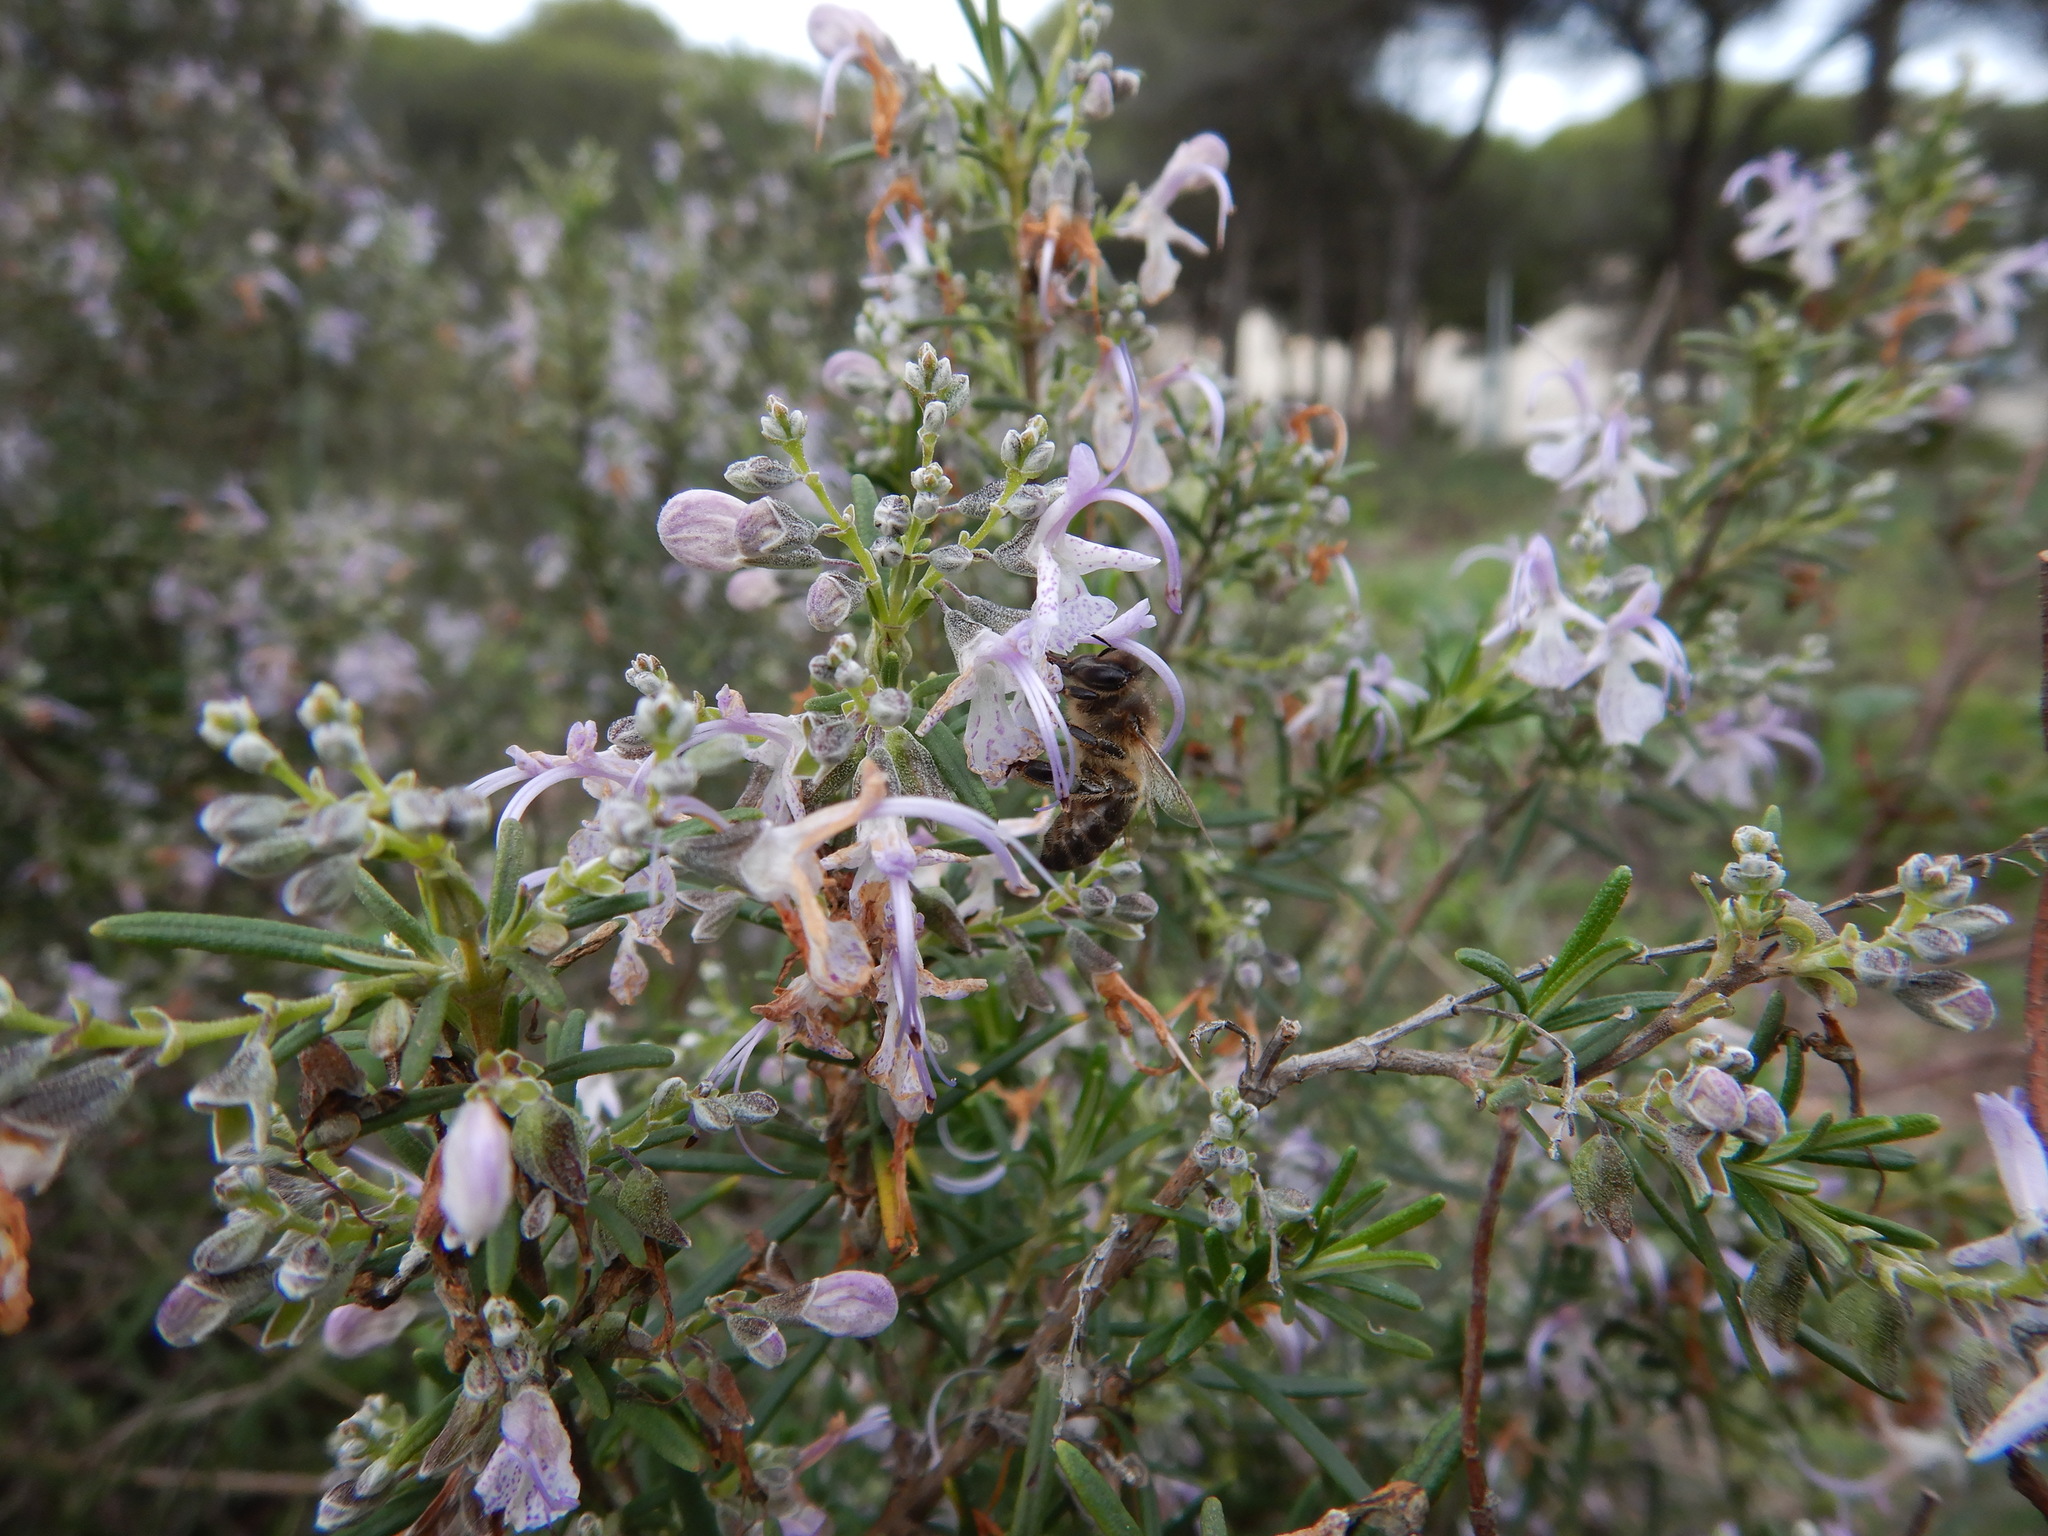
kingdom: Animalia
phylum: Arthropoda
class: Insecta
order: Hymenoptera
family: Apidae
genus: Apis
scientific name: Apis mellifera
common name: Honey bee
